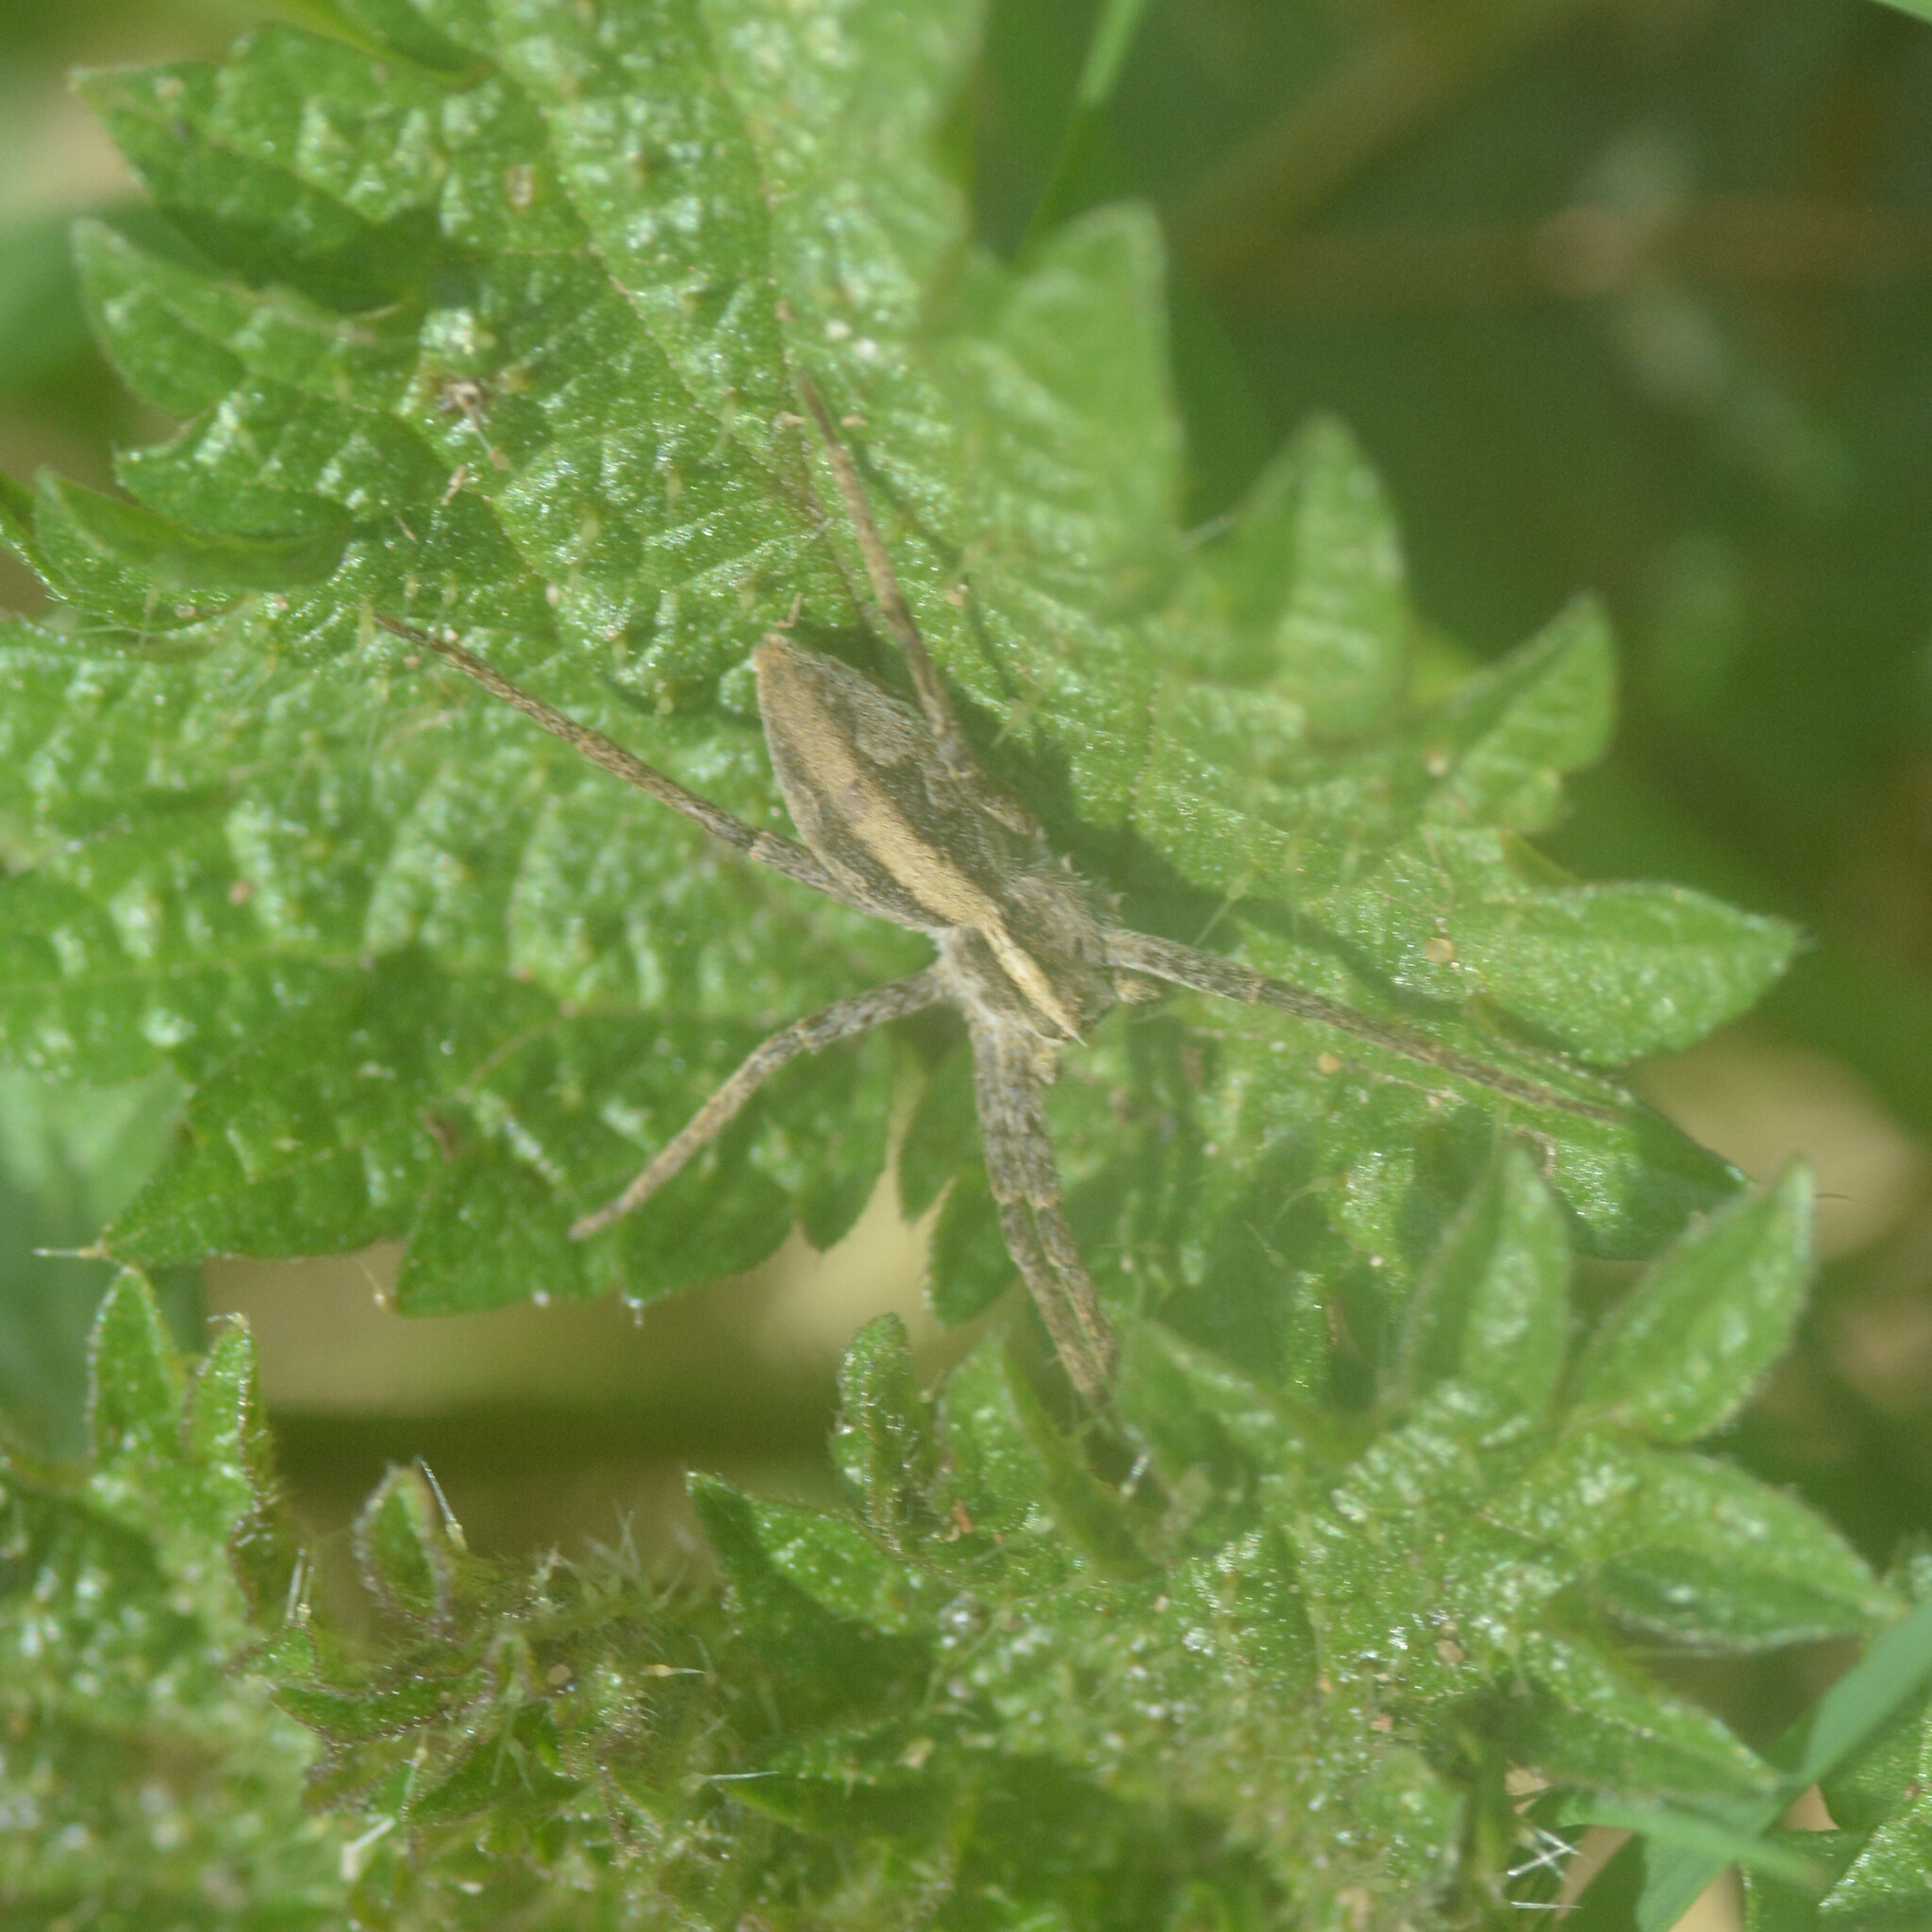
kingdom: Animalia
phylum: Arthropoda
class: Arachnida
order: Araneae
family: Pisauridae
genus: Pisaura
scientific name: Pisaura mirabilis
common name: Tent spider
